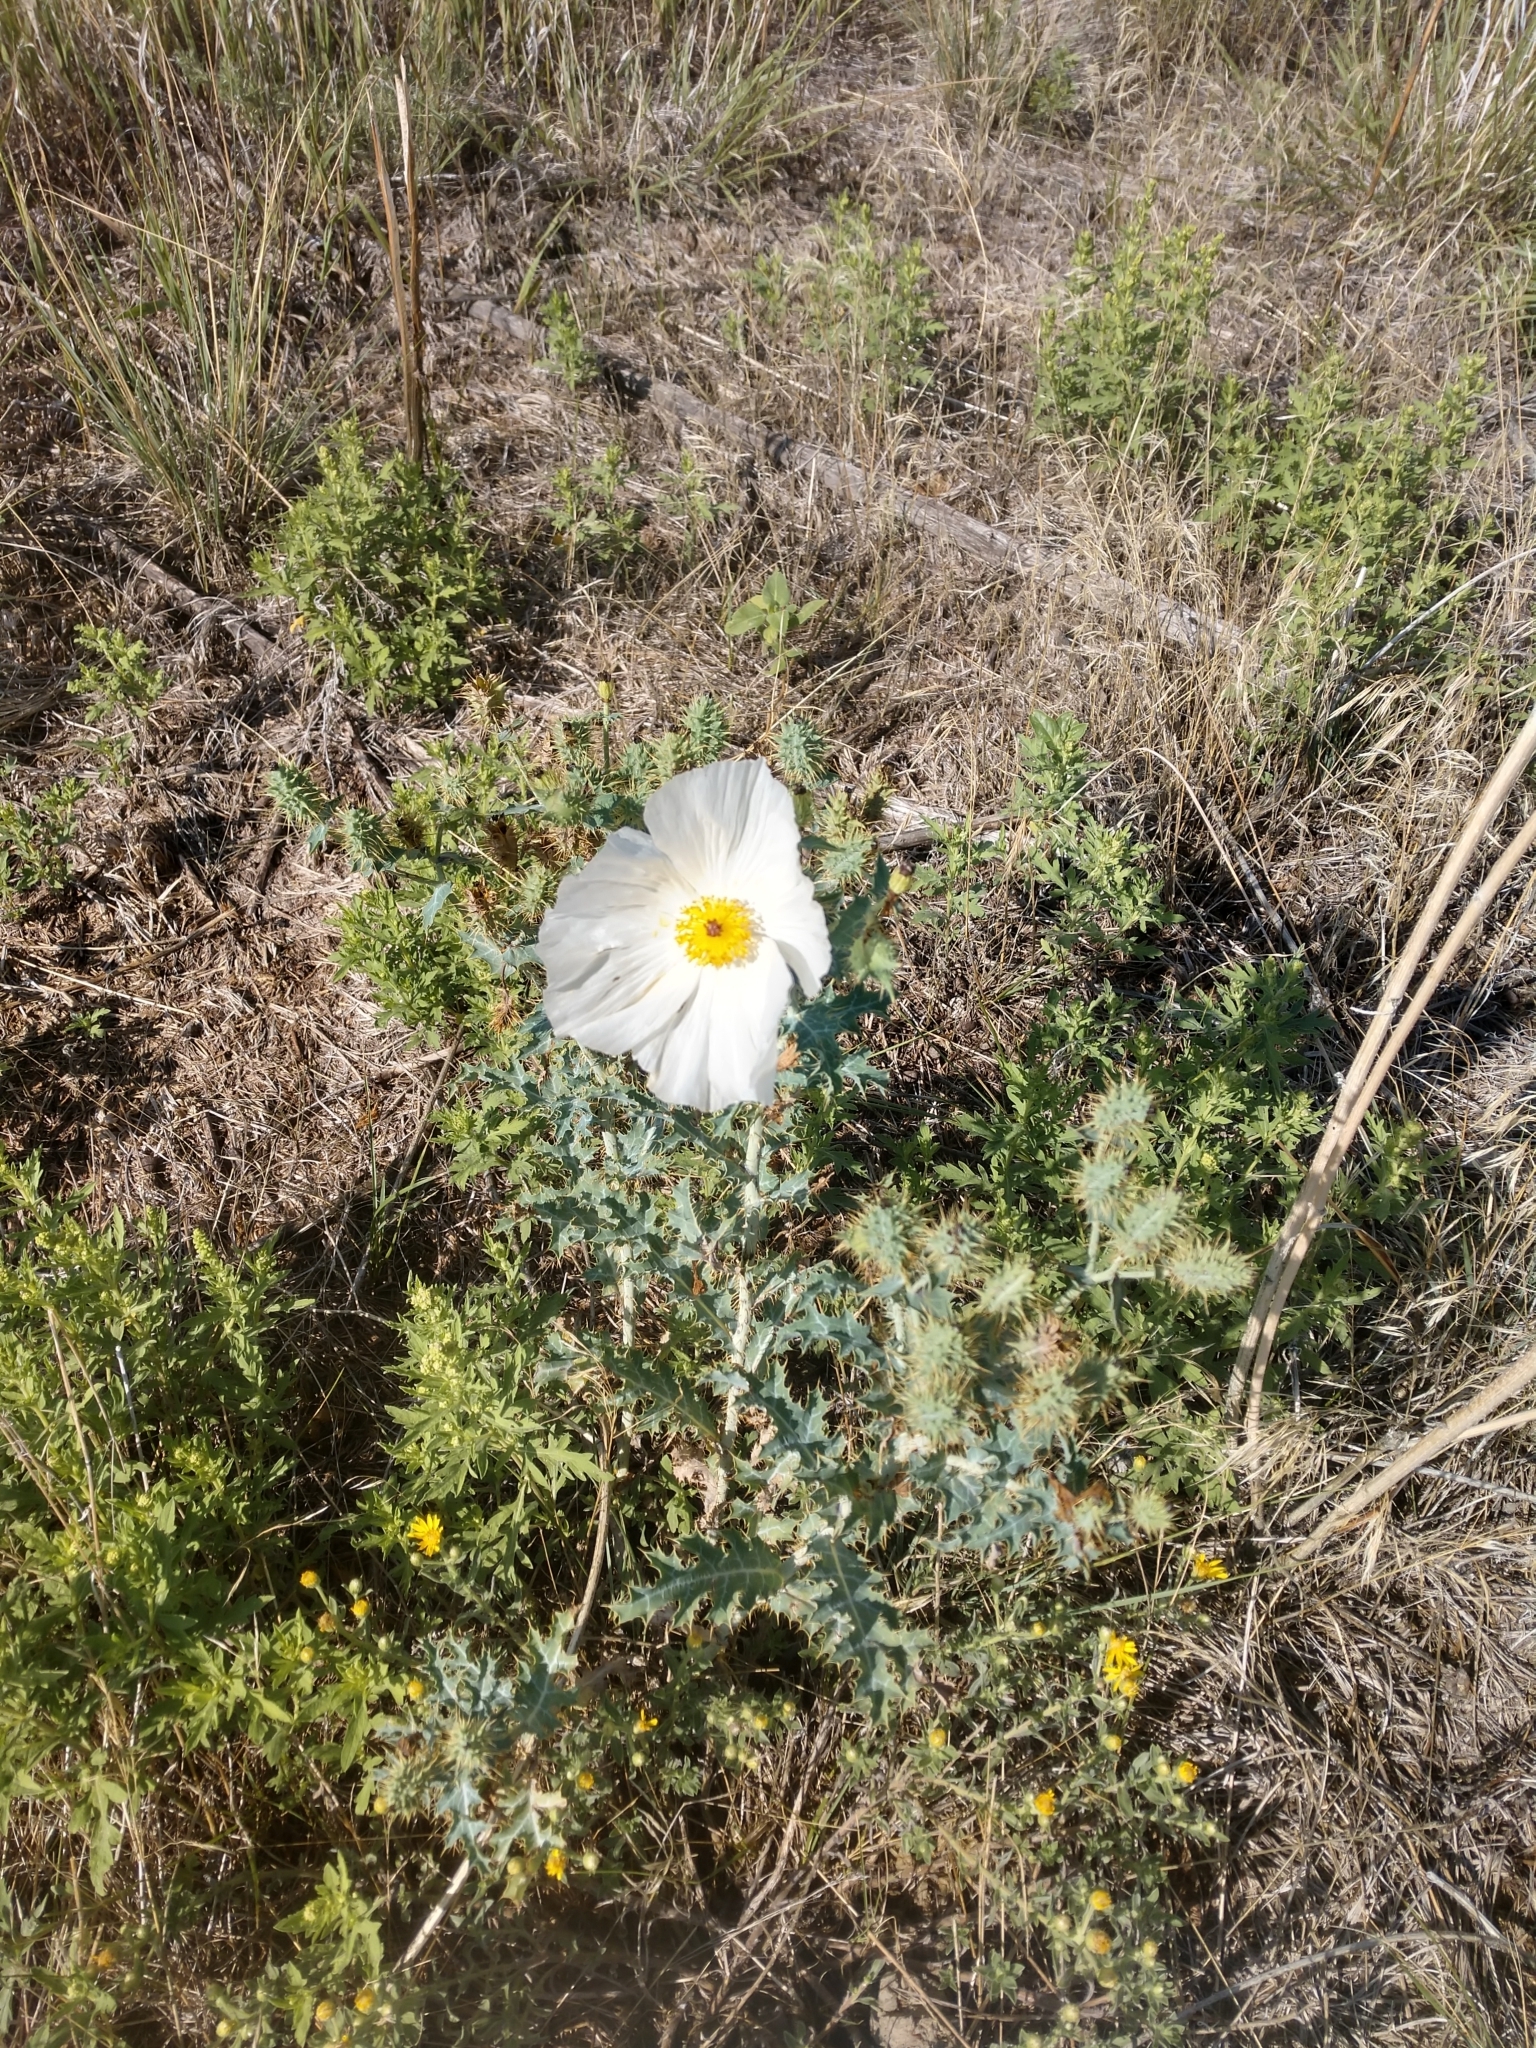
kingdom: Plantae
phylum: Tracheophyta
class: Magnoliopsida
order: Ranunculales
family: Papaveraceae
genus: Argemone
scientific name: Argemone polyanthemos
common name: Plains prickly-poppy
